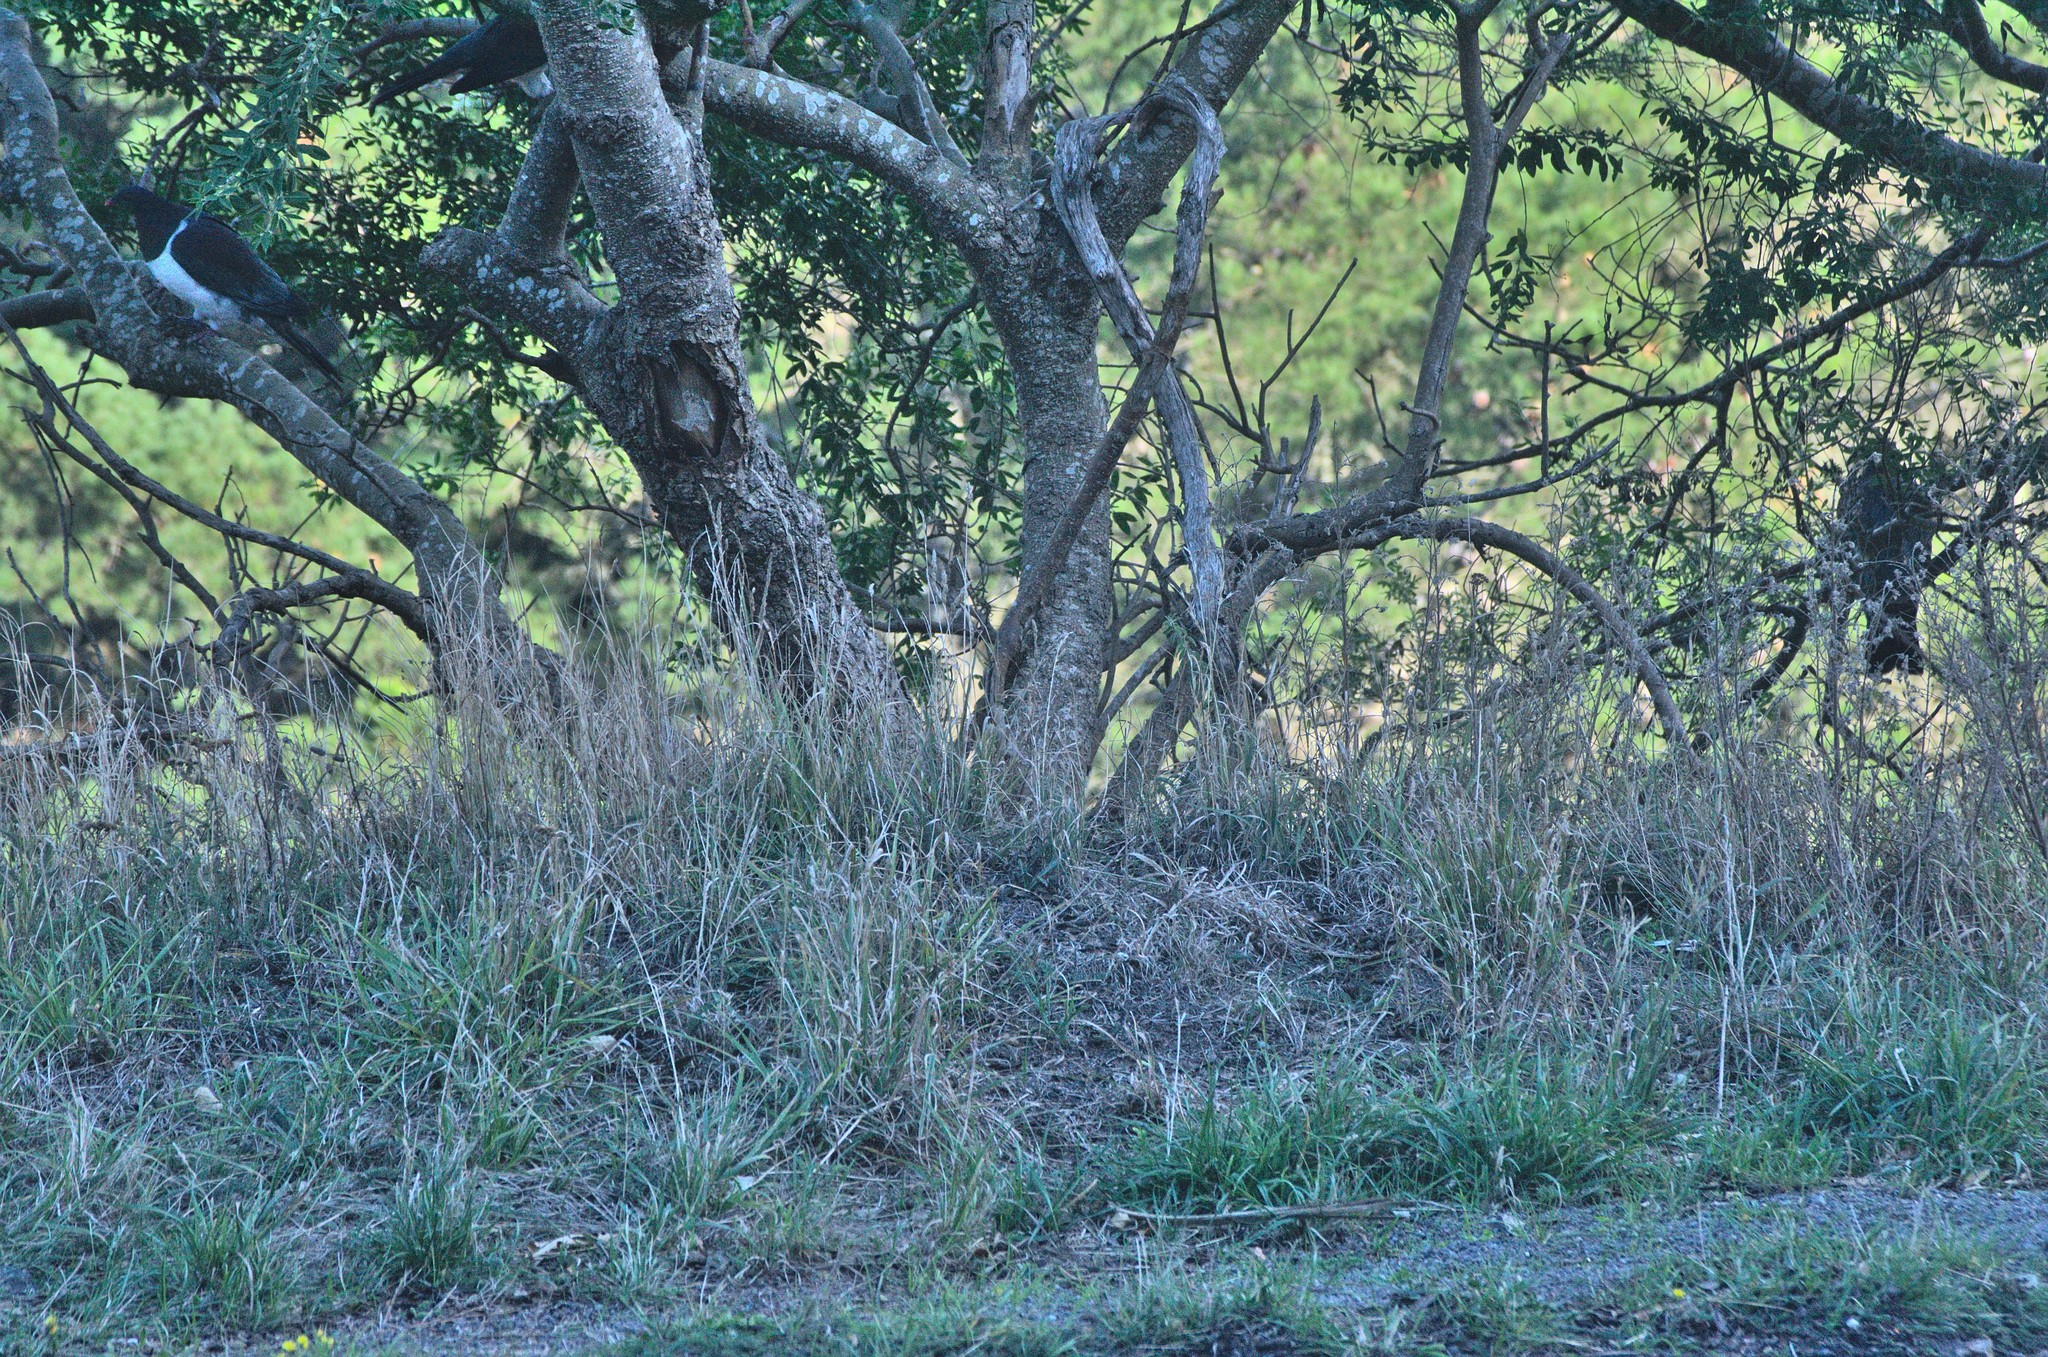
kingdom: Animalia
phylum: Chordata
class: Aves
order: Columbiformes
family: Columbidae
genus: Hemiphaga
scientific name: Hemiphaga novaeseelandiae
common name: New zealand pigeon
